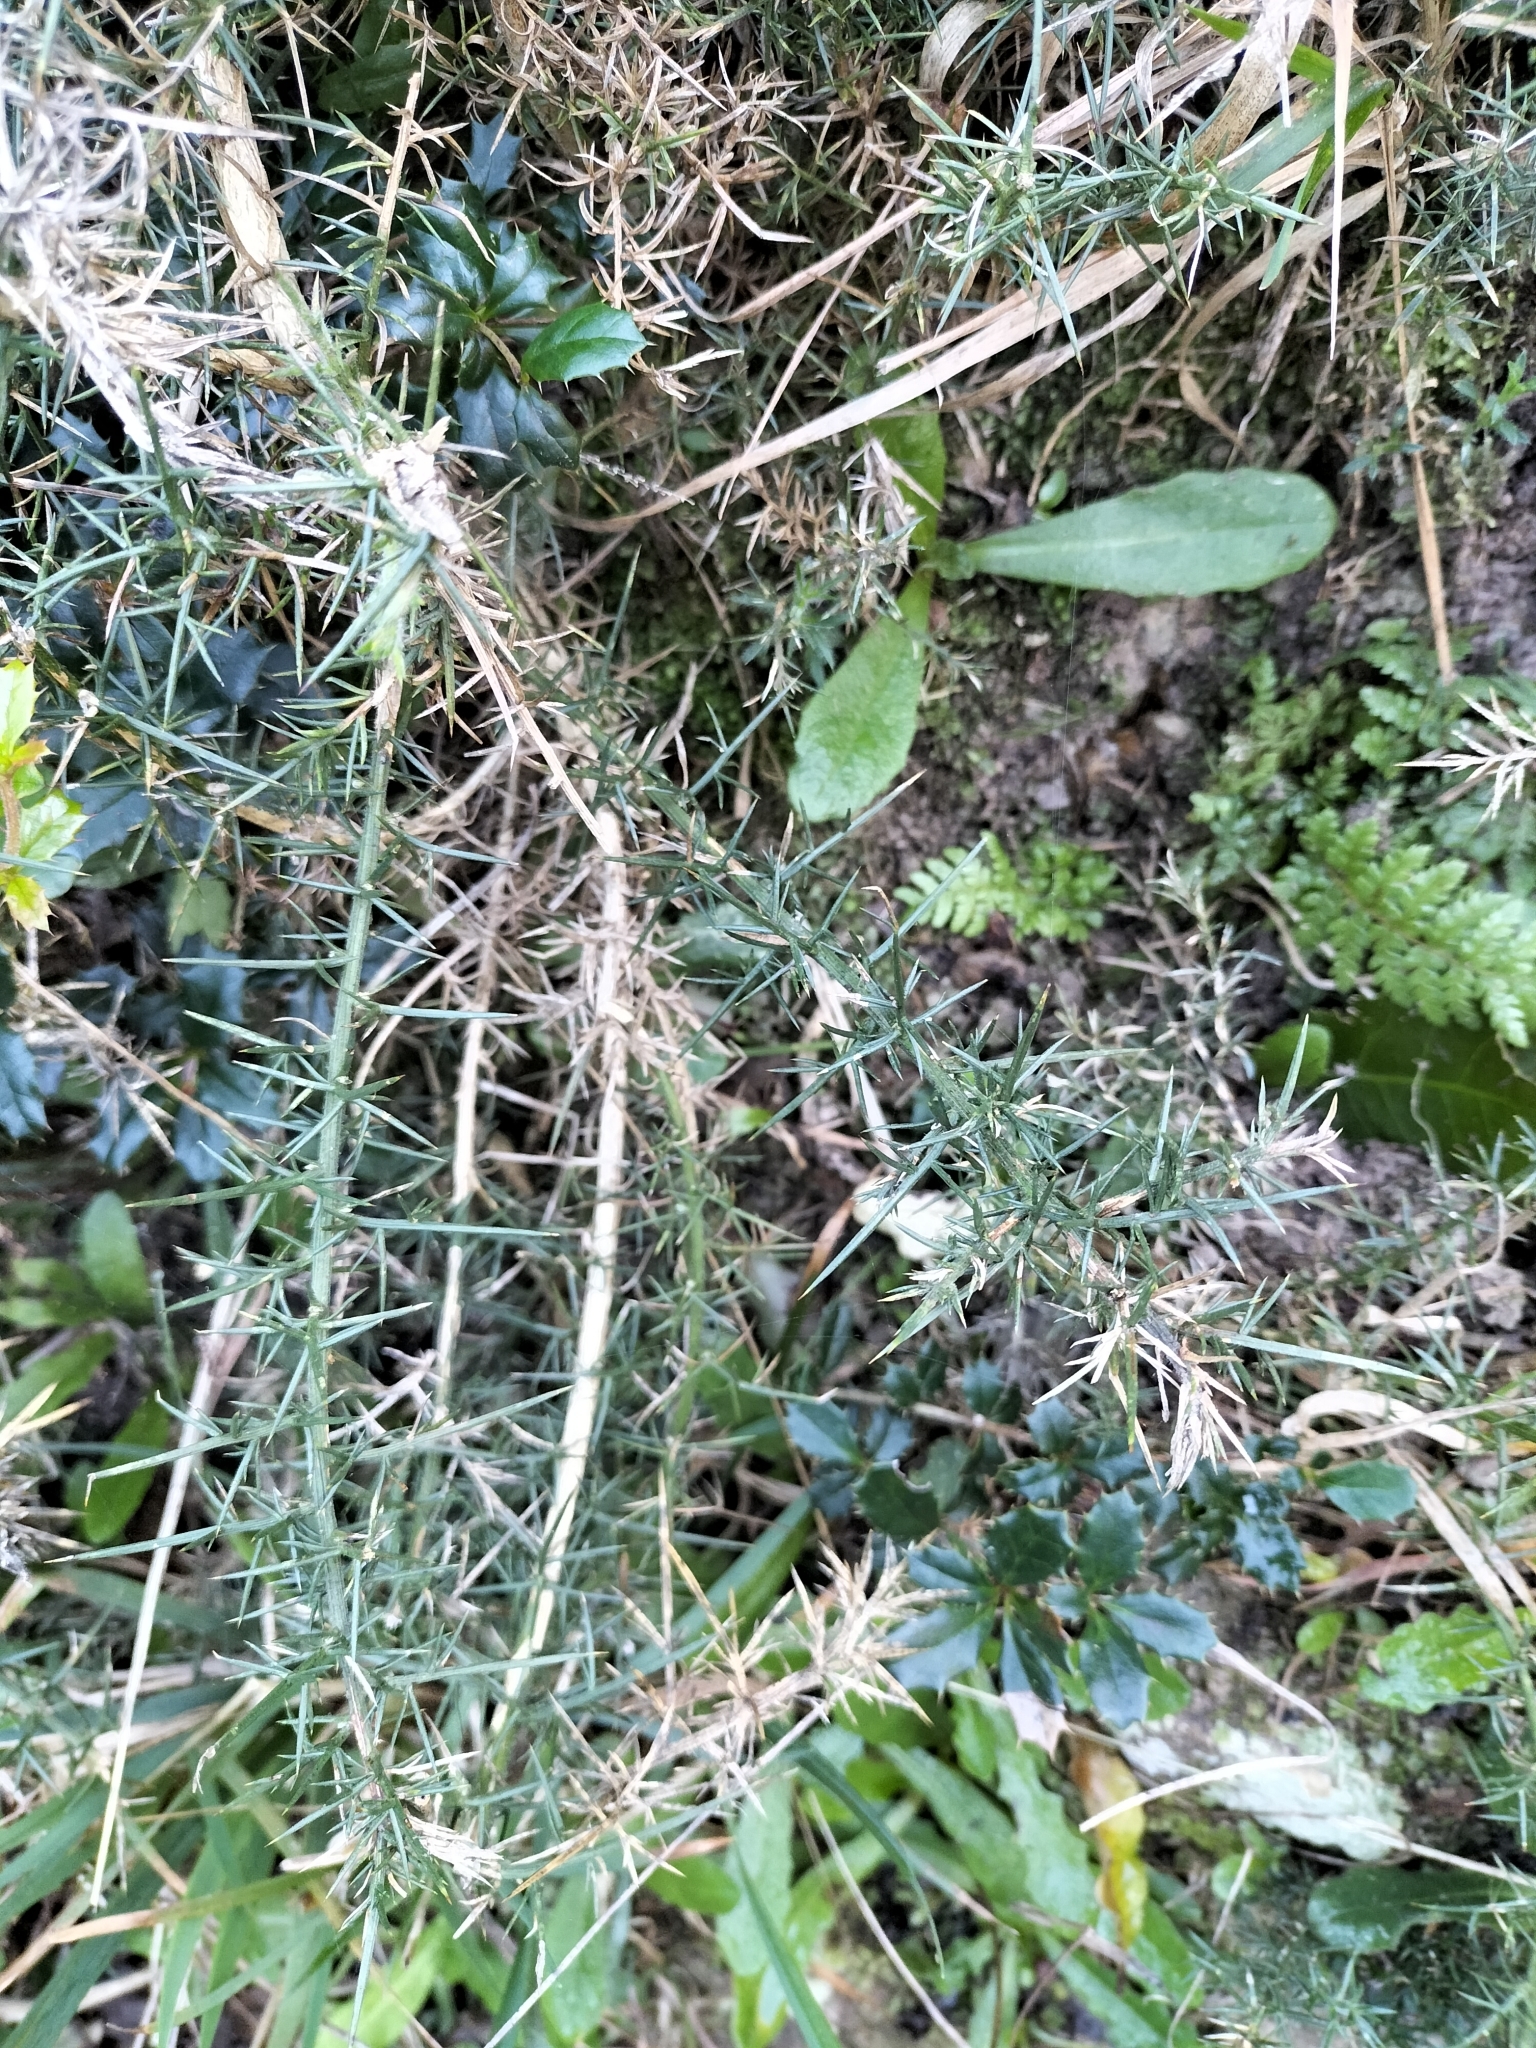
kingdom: Plantae
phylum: Tracheophyta
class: Magnoliopsida
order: Fabales
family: Fabaceae
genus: Ulex
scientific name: Ulex europaeus
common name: Common gorse
